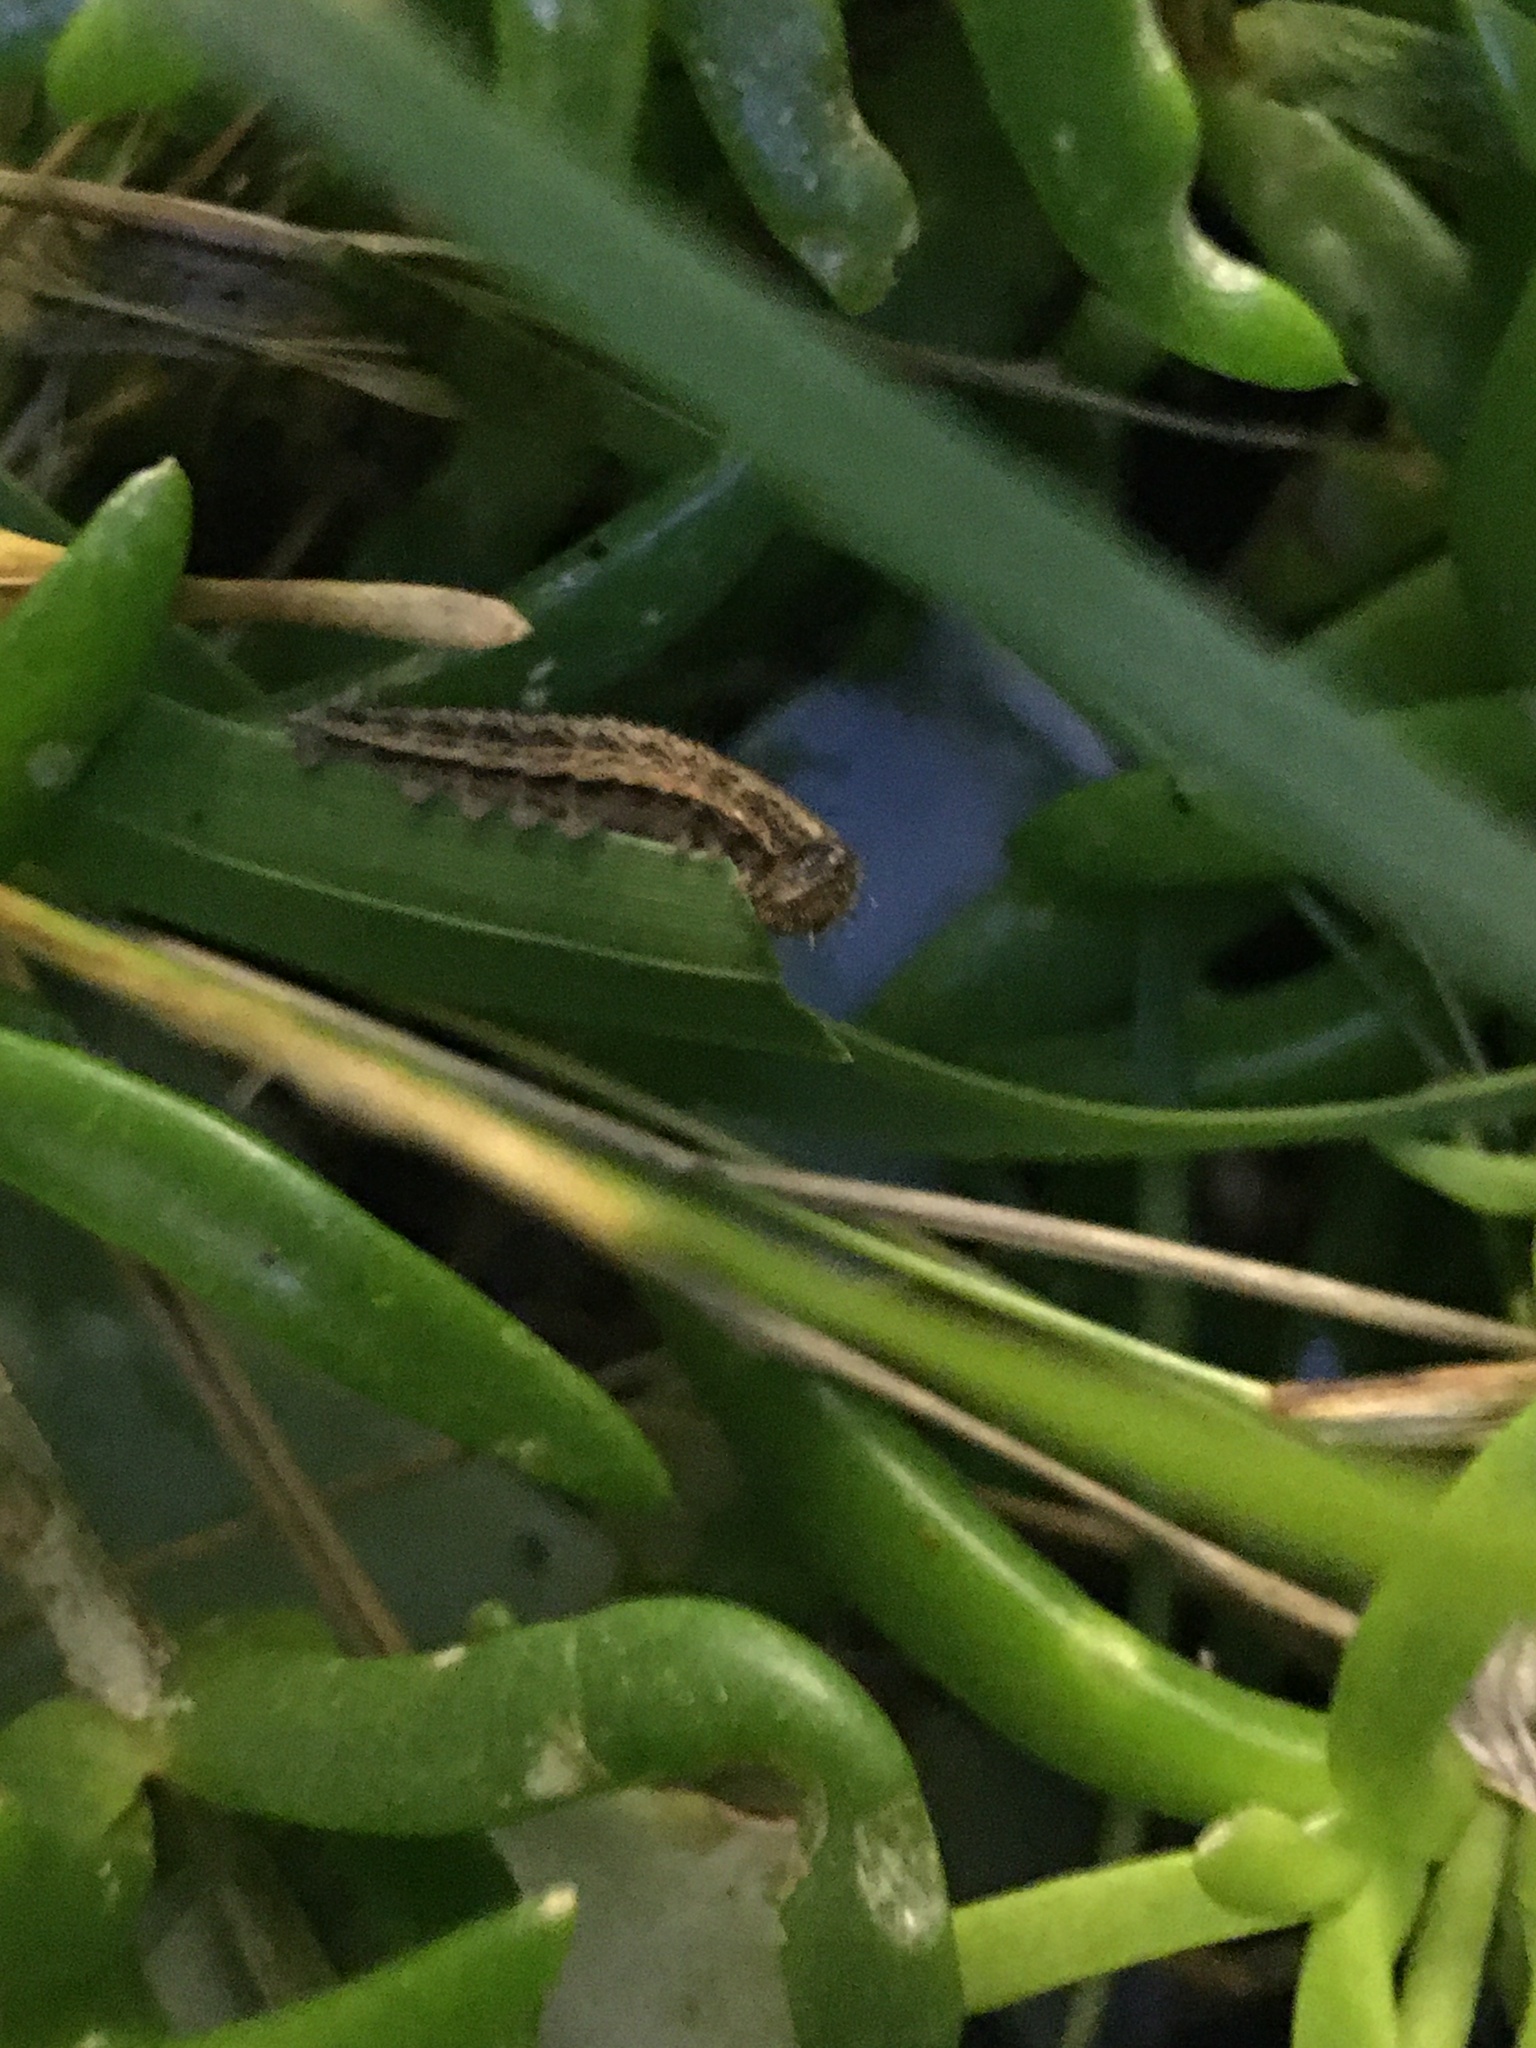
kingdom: Animalia
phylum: Arthropoda
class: Insecta
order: Lepidoptera
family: Nymphalidae
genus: Dira
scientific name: Dira clytus
